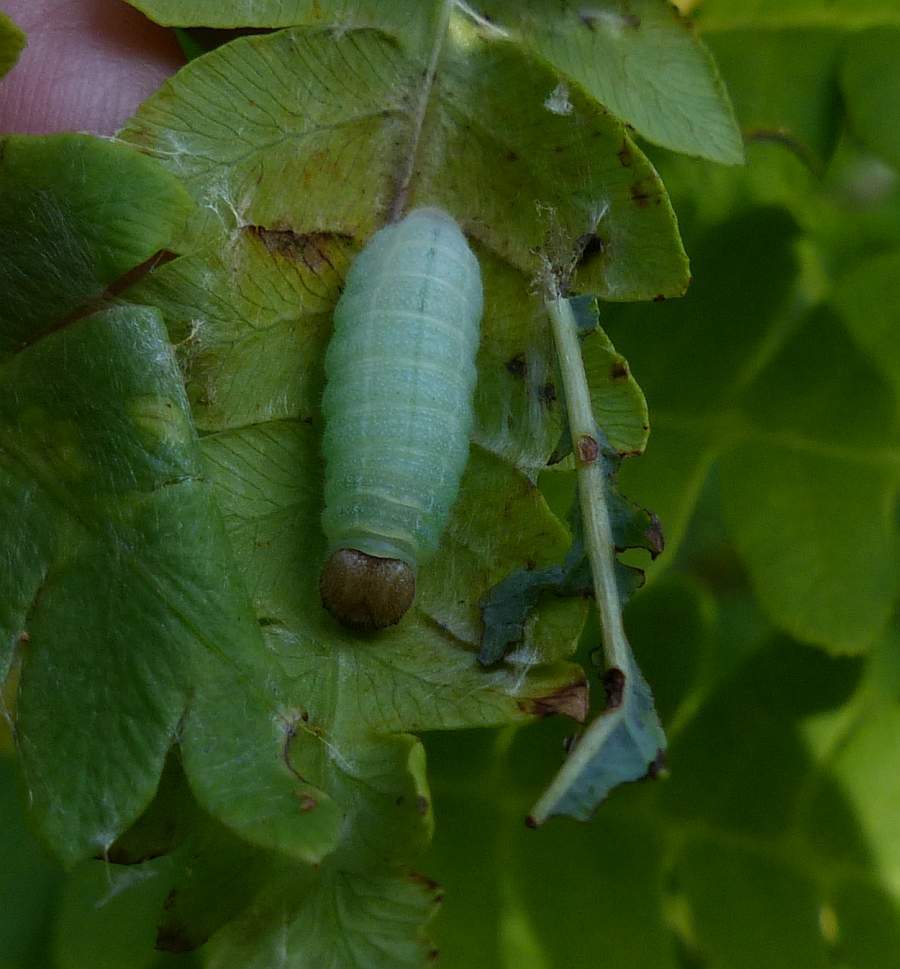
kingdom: Animalia
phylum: Arthropoda
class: Insecta
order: Lepidoptera
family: Hesperiidae
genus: Erynnis
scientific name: Erynnis icelus
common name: Dreamy duskywing
